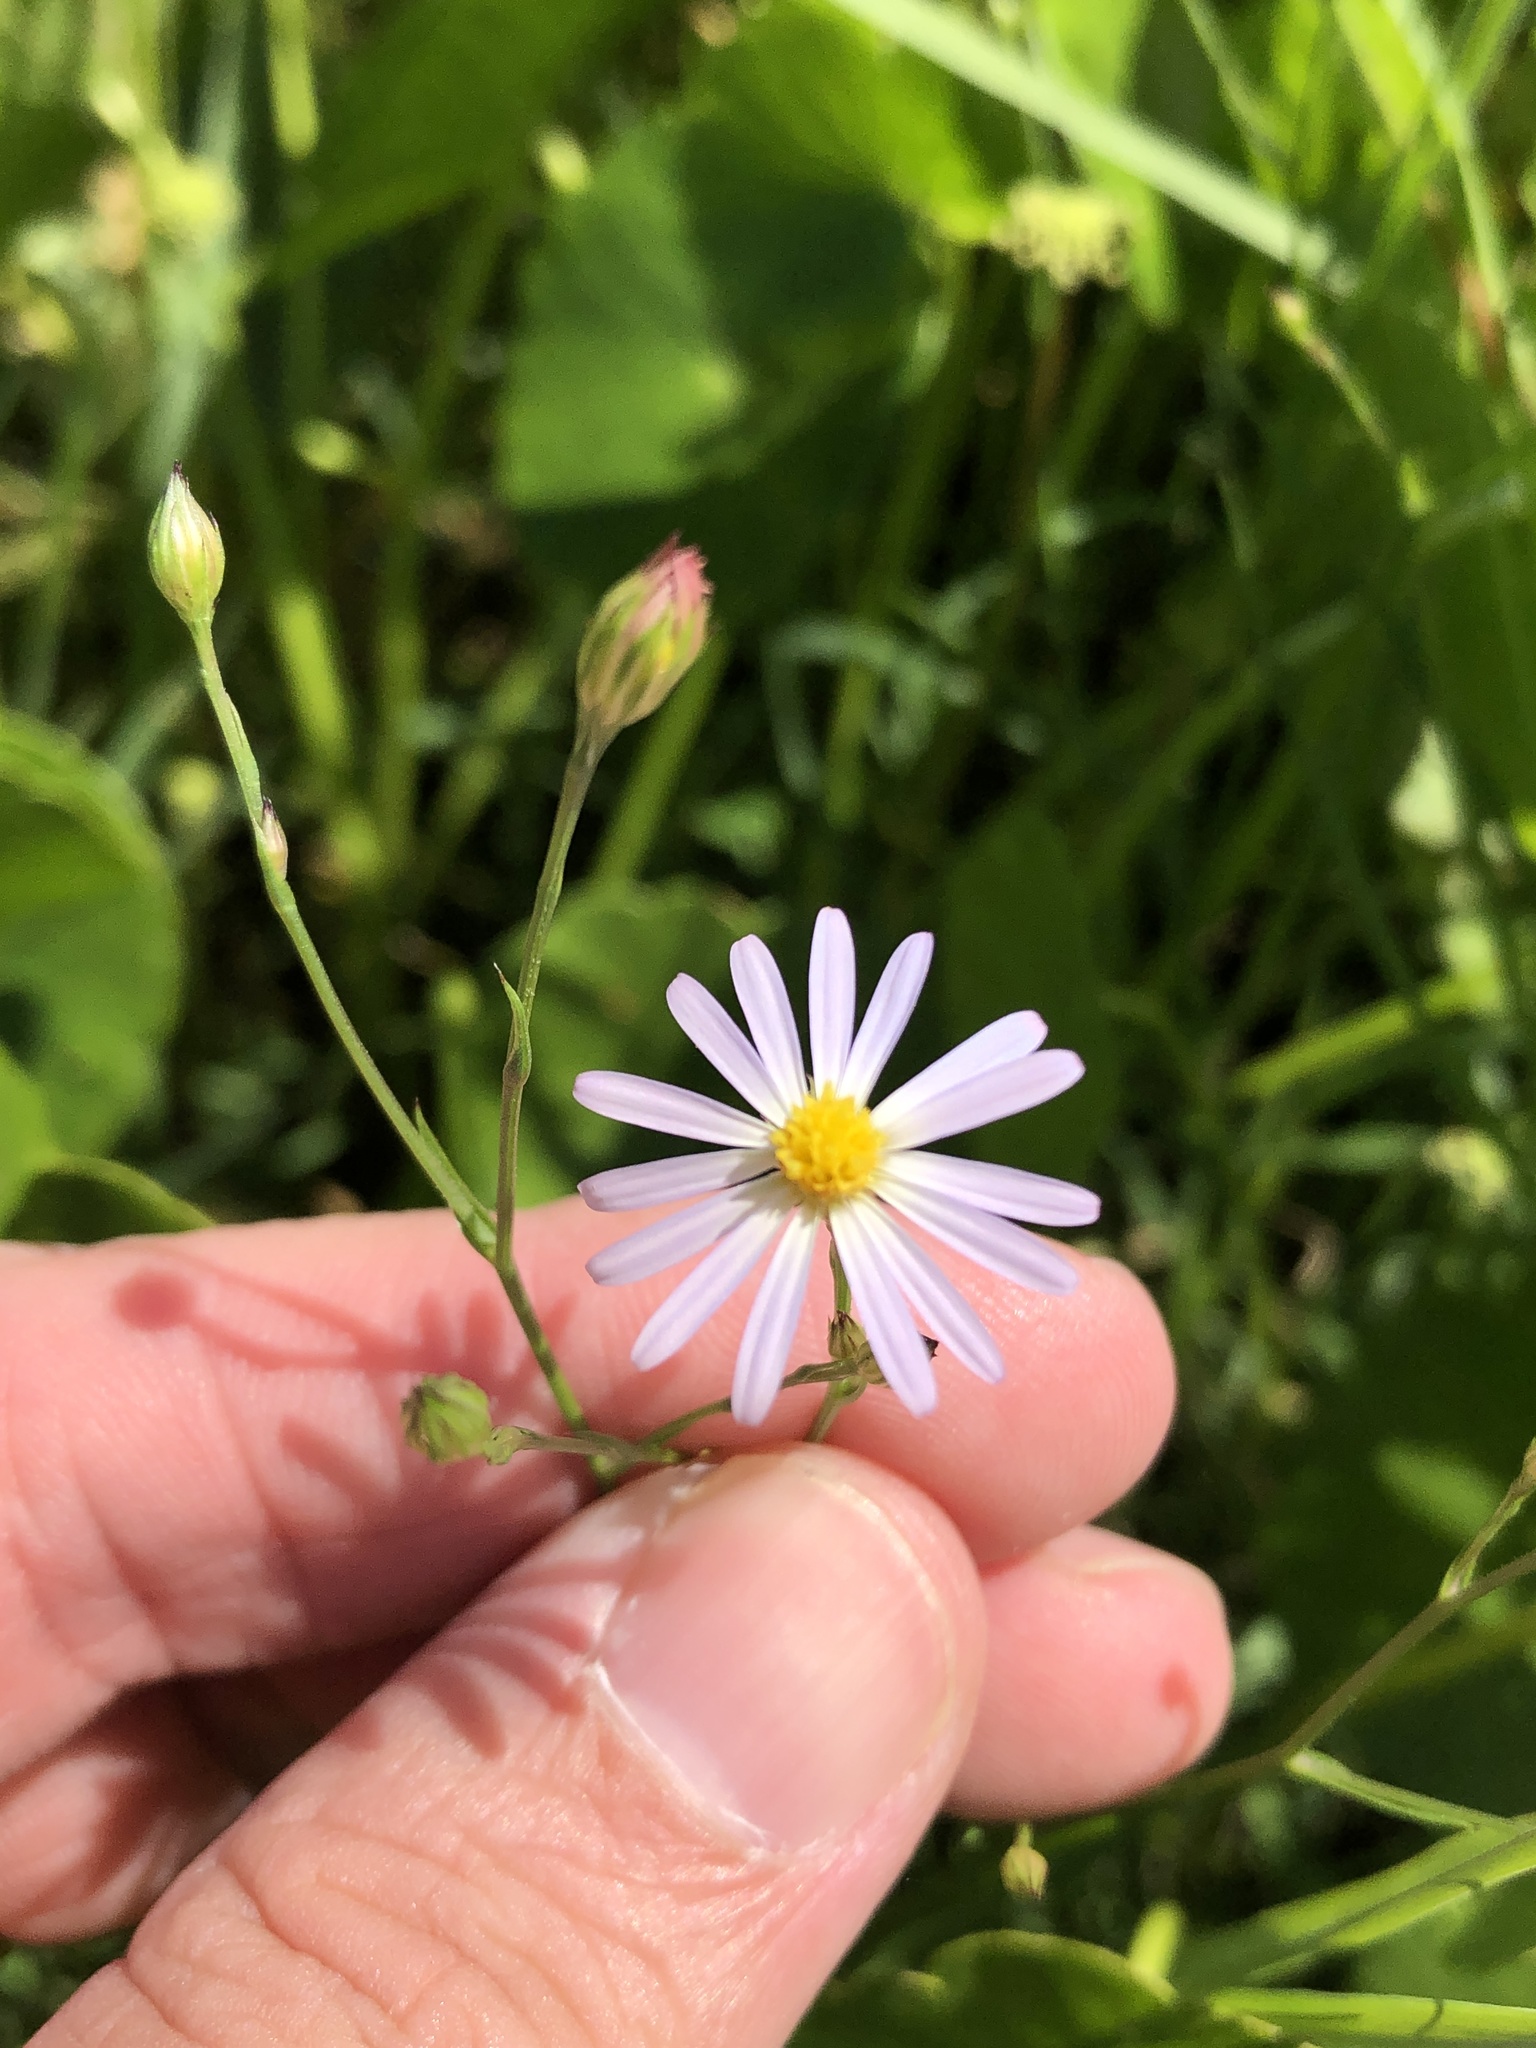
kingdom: Plantae
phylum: Tracheophyta
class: Magnoliopsida
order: Asterales
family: Asteraceae
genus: Symphyotrichum
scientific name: Symphyotrichum divaricatum
